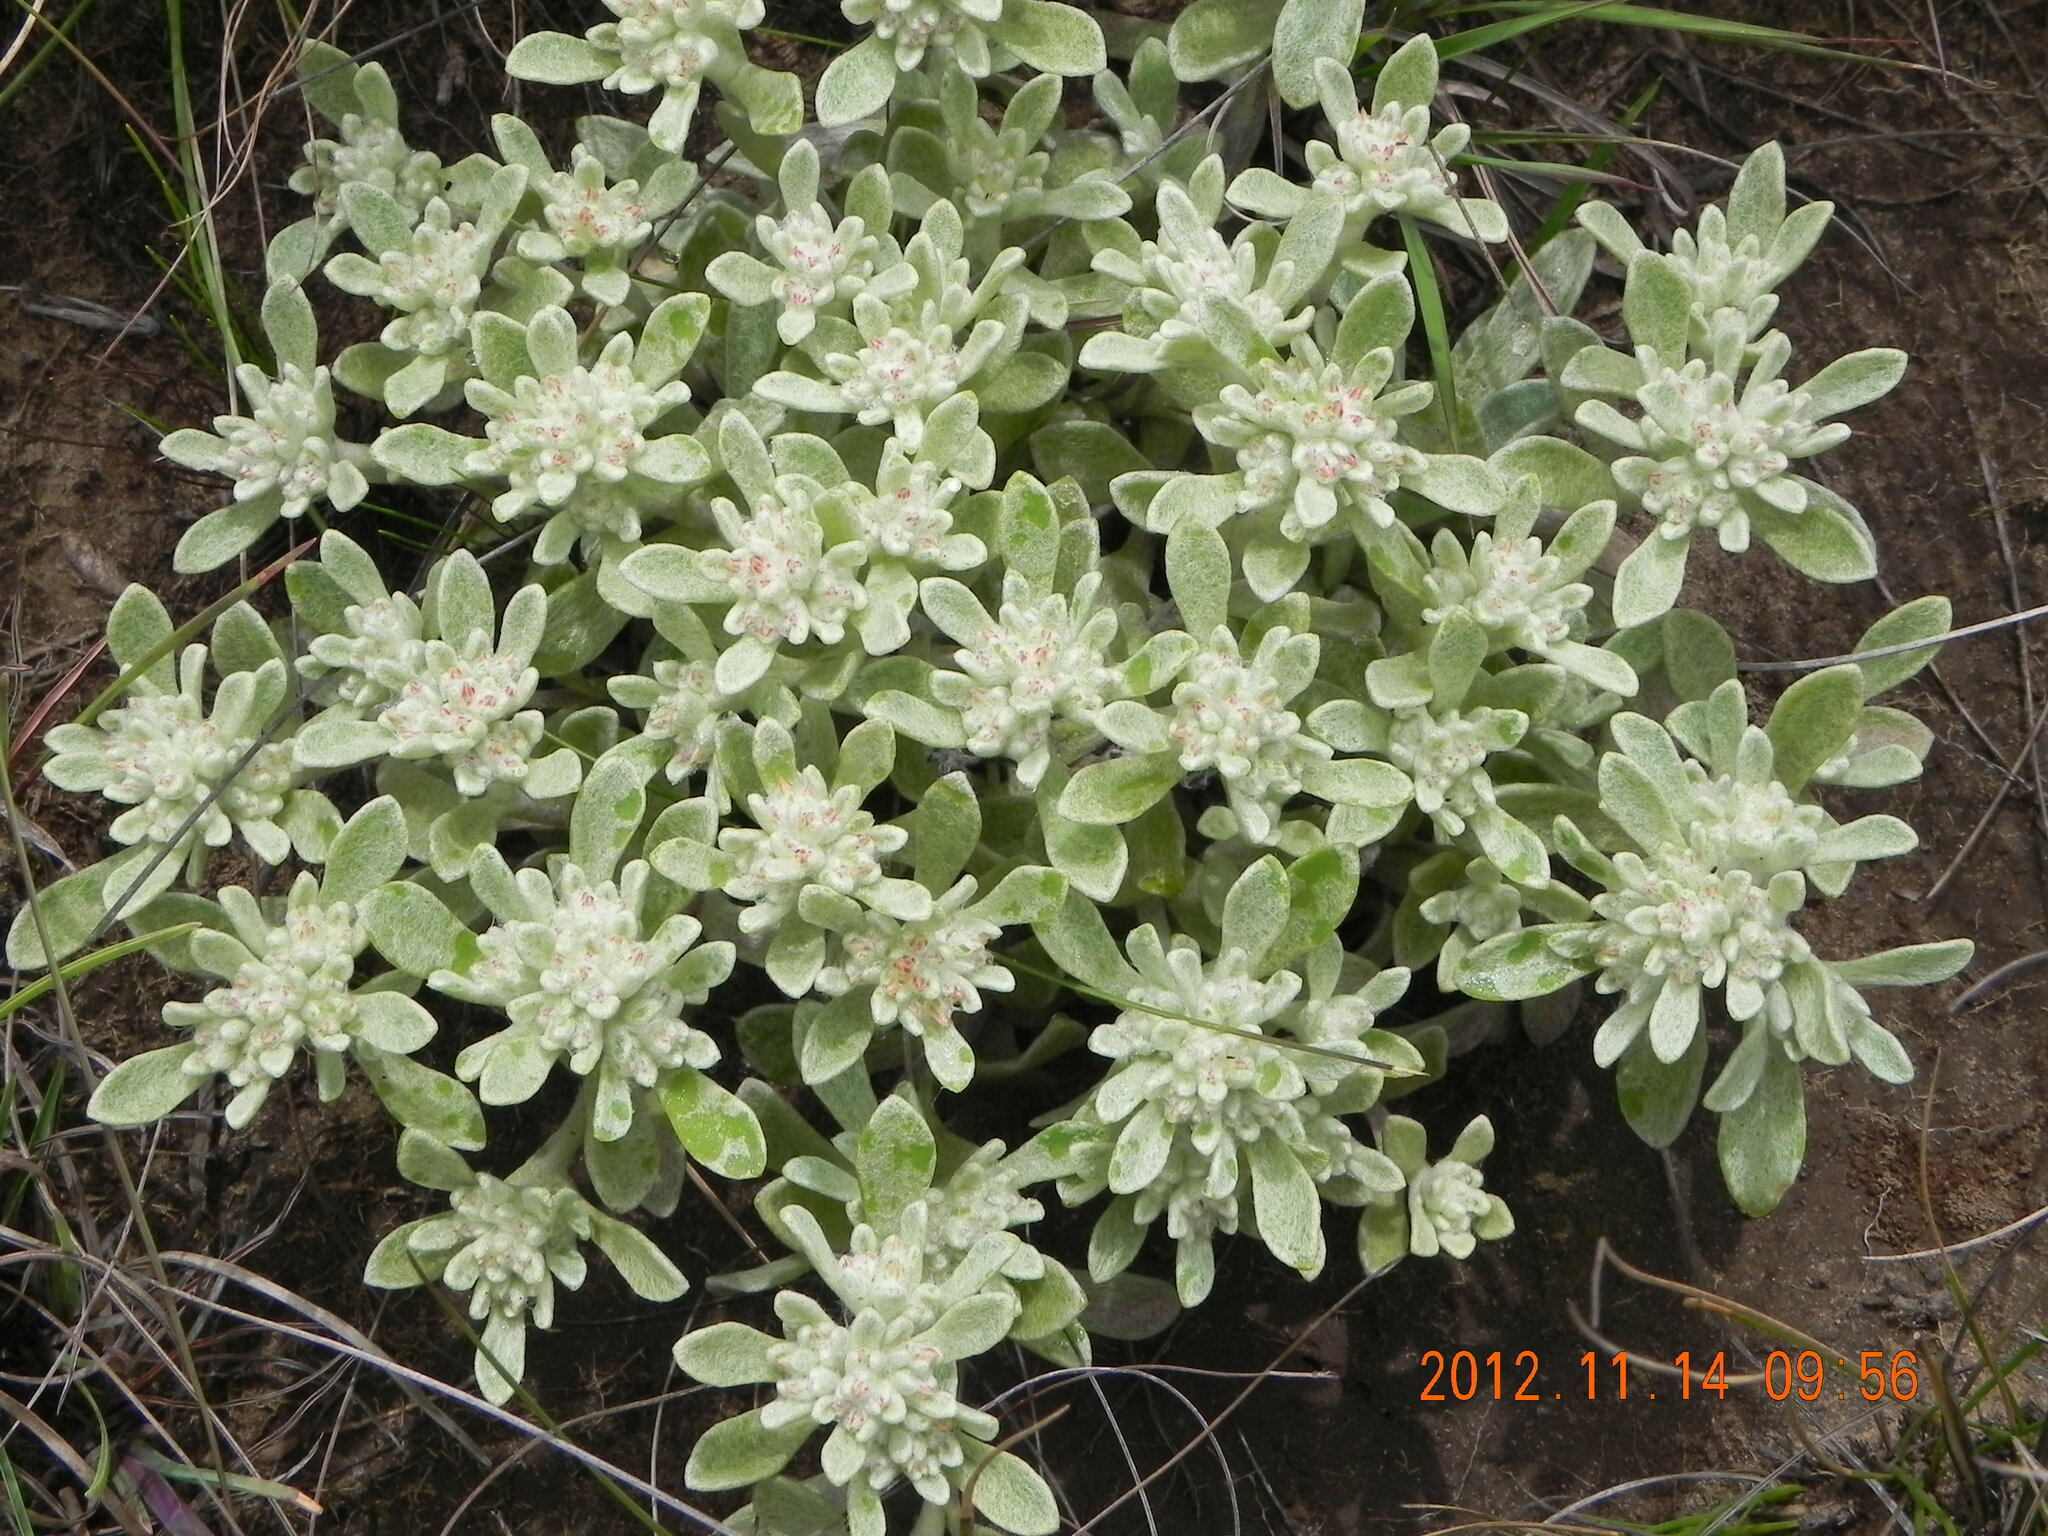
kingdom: Plantae
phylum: Tracheophyta
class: Magnoliopsida
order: Asterales
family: Asteraceae
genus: Helichrysum
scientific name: Helichrysum spiralepis
